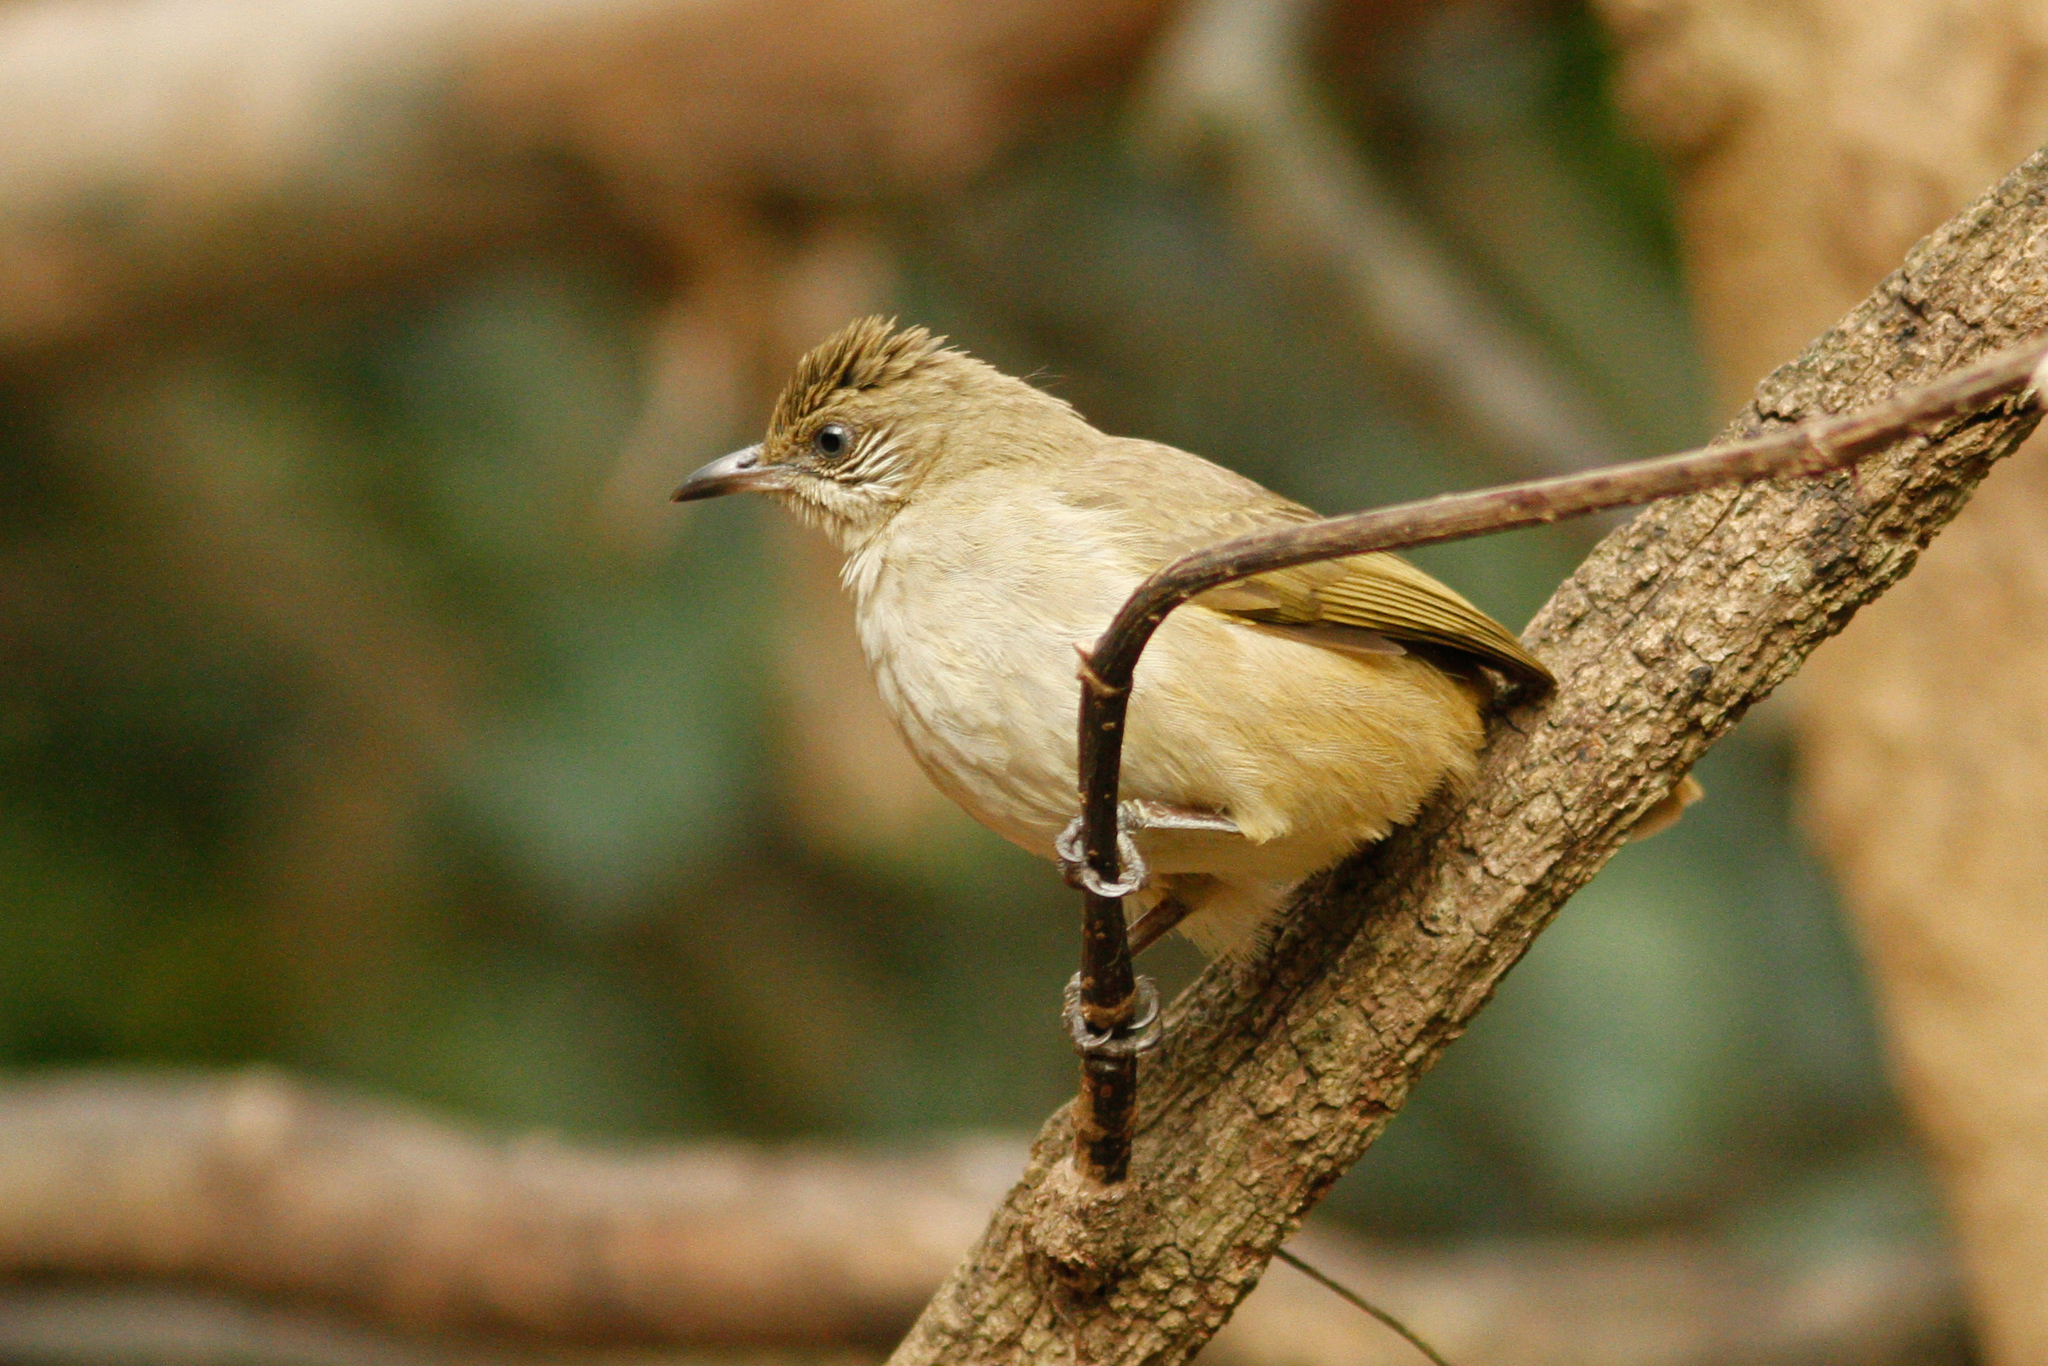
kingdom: Animalia
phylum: Chordata
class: Aves
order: Passeriformes
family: Pycnonotidae
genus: Pycnonotus
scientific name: Pycnonotus blanfordi
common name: Streak-eared bulbul
